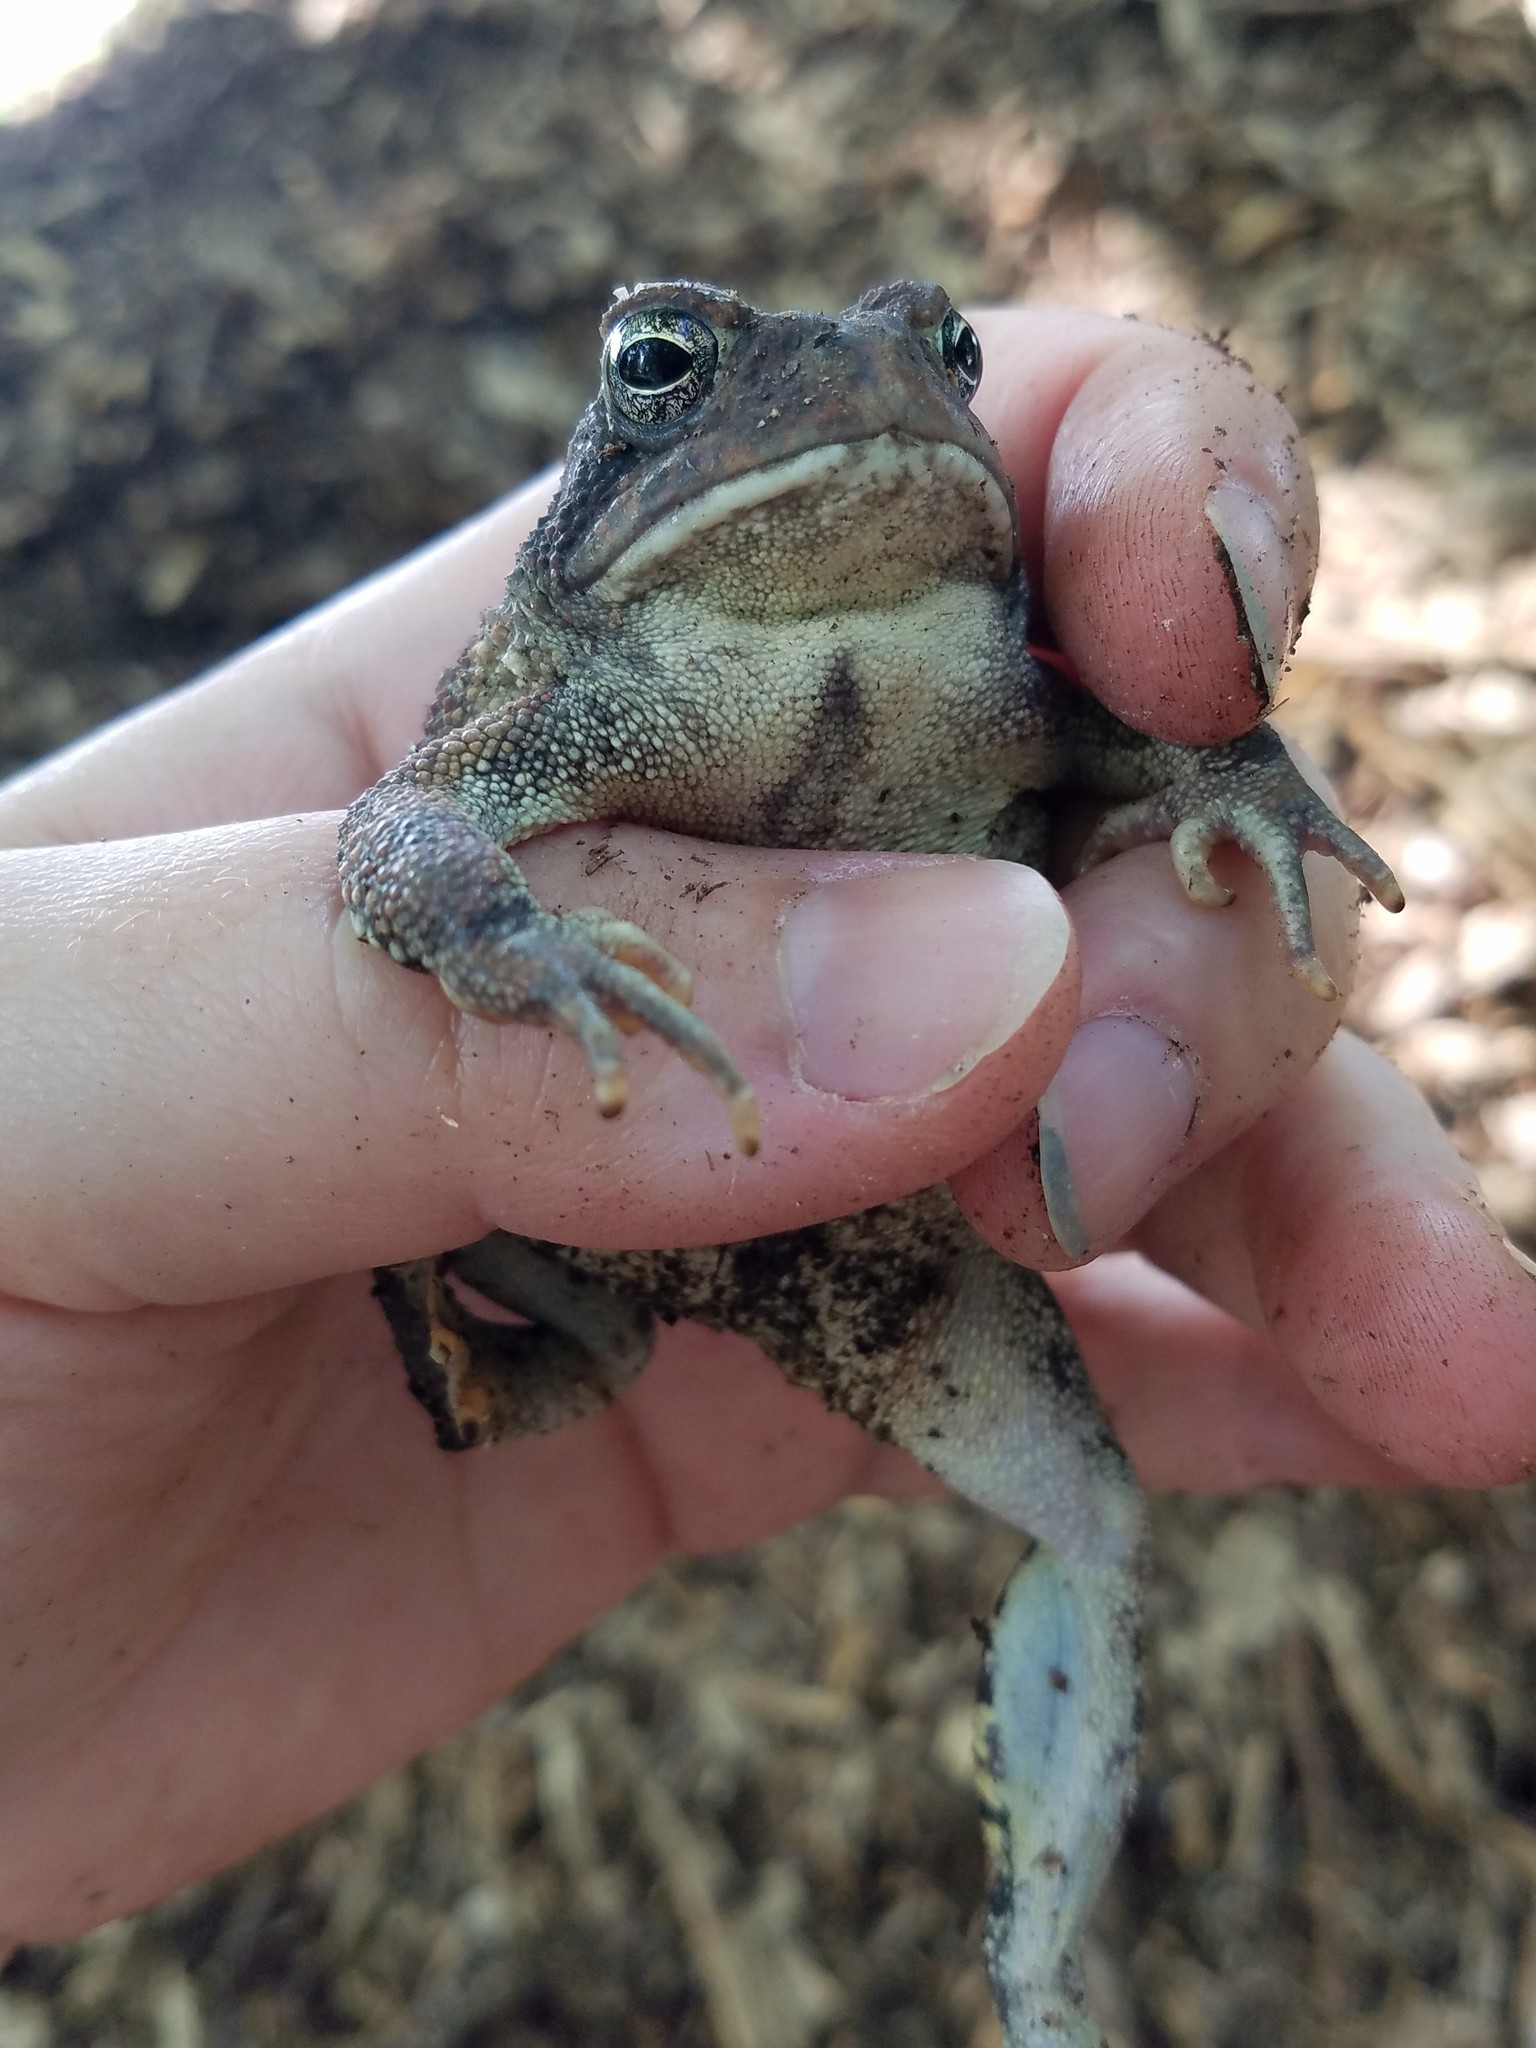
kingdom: Animalia
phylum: Chordata
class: Amphibia
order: Anura
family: Bufonidae
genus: Anaxyrus
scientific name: Anaxyrus fowleri
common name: Fowler's toad
